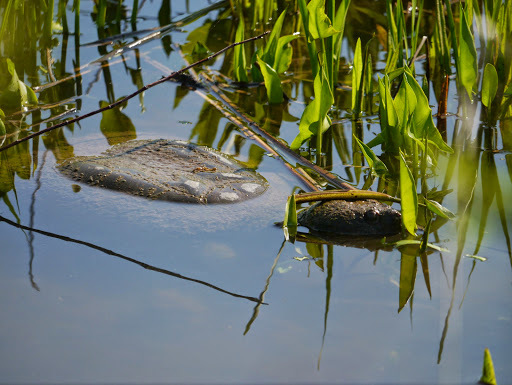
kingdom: Animalia
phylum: Chordata
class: Testudines
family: Chelydridae
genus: Chelydra
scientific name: Chelydra serpentina
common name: Common snapping turtle
